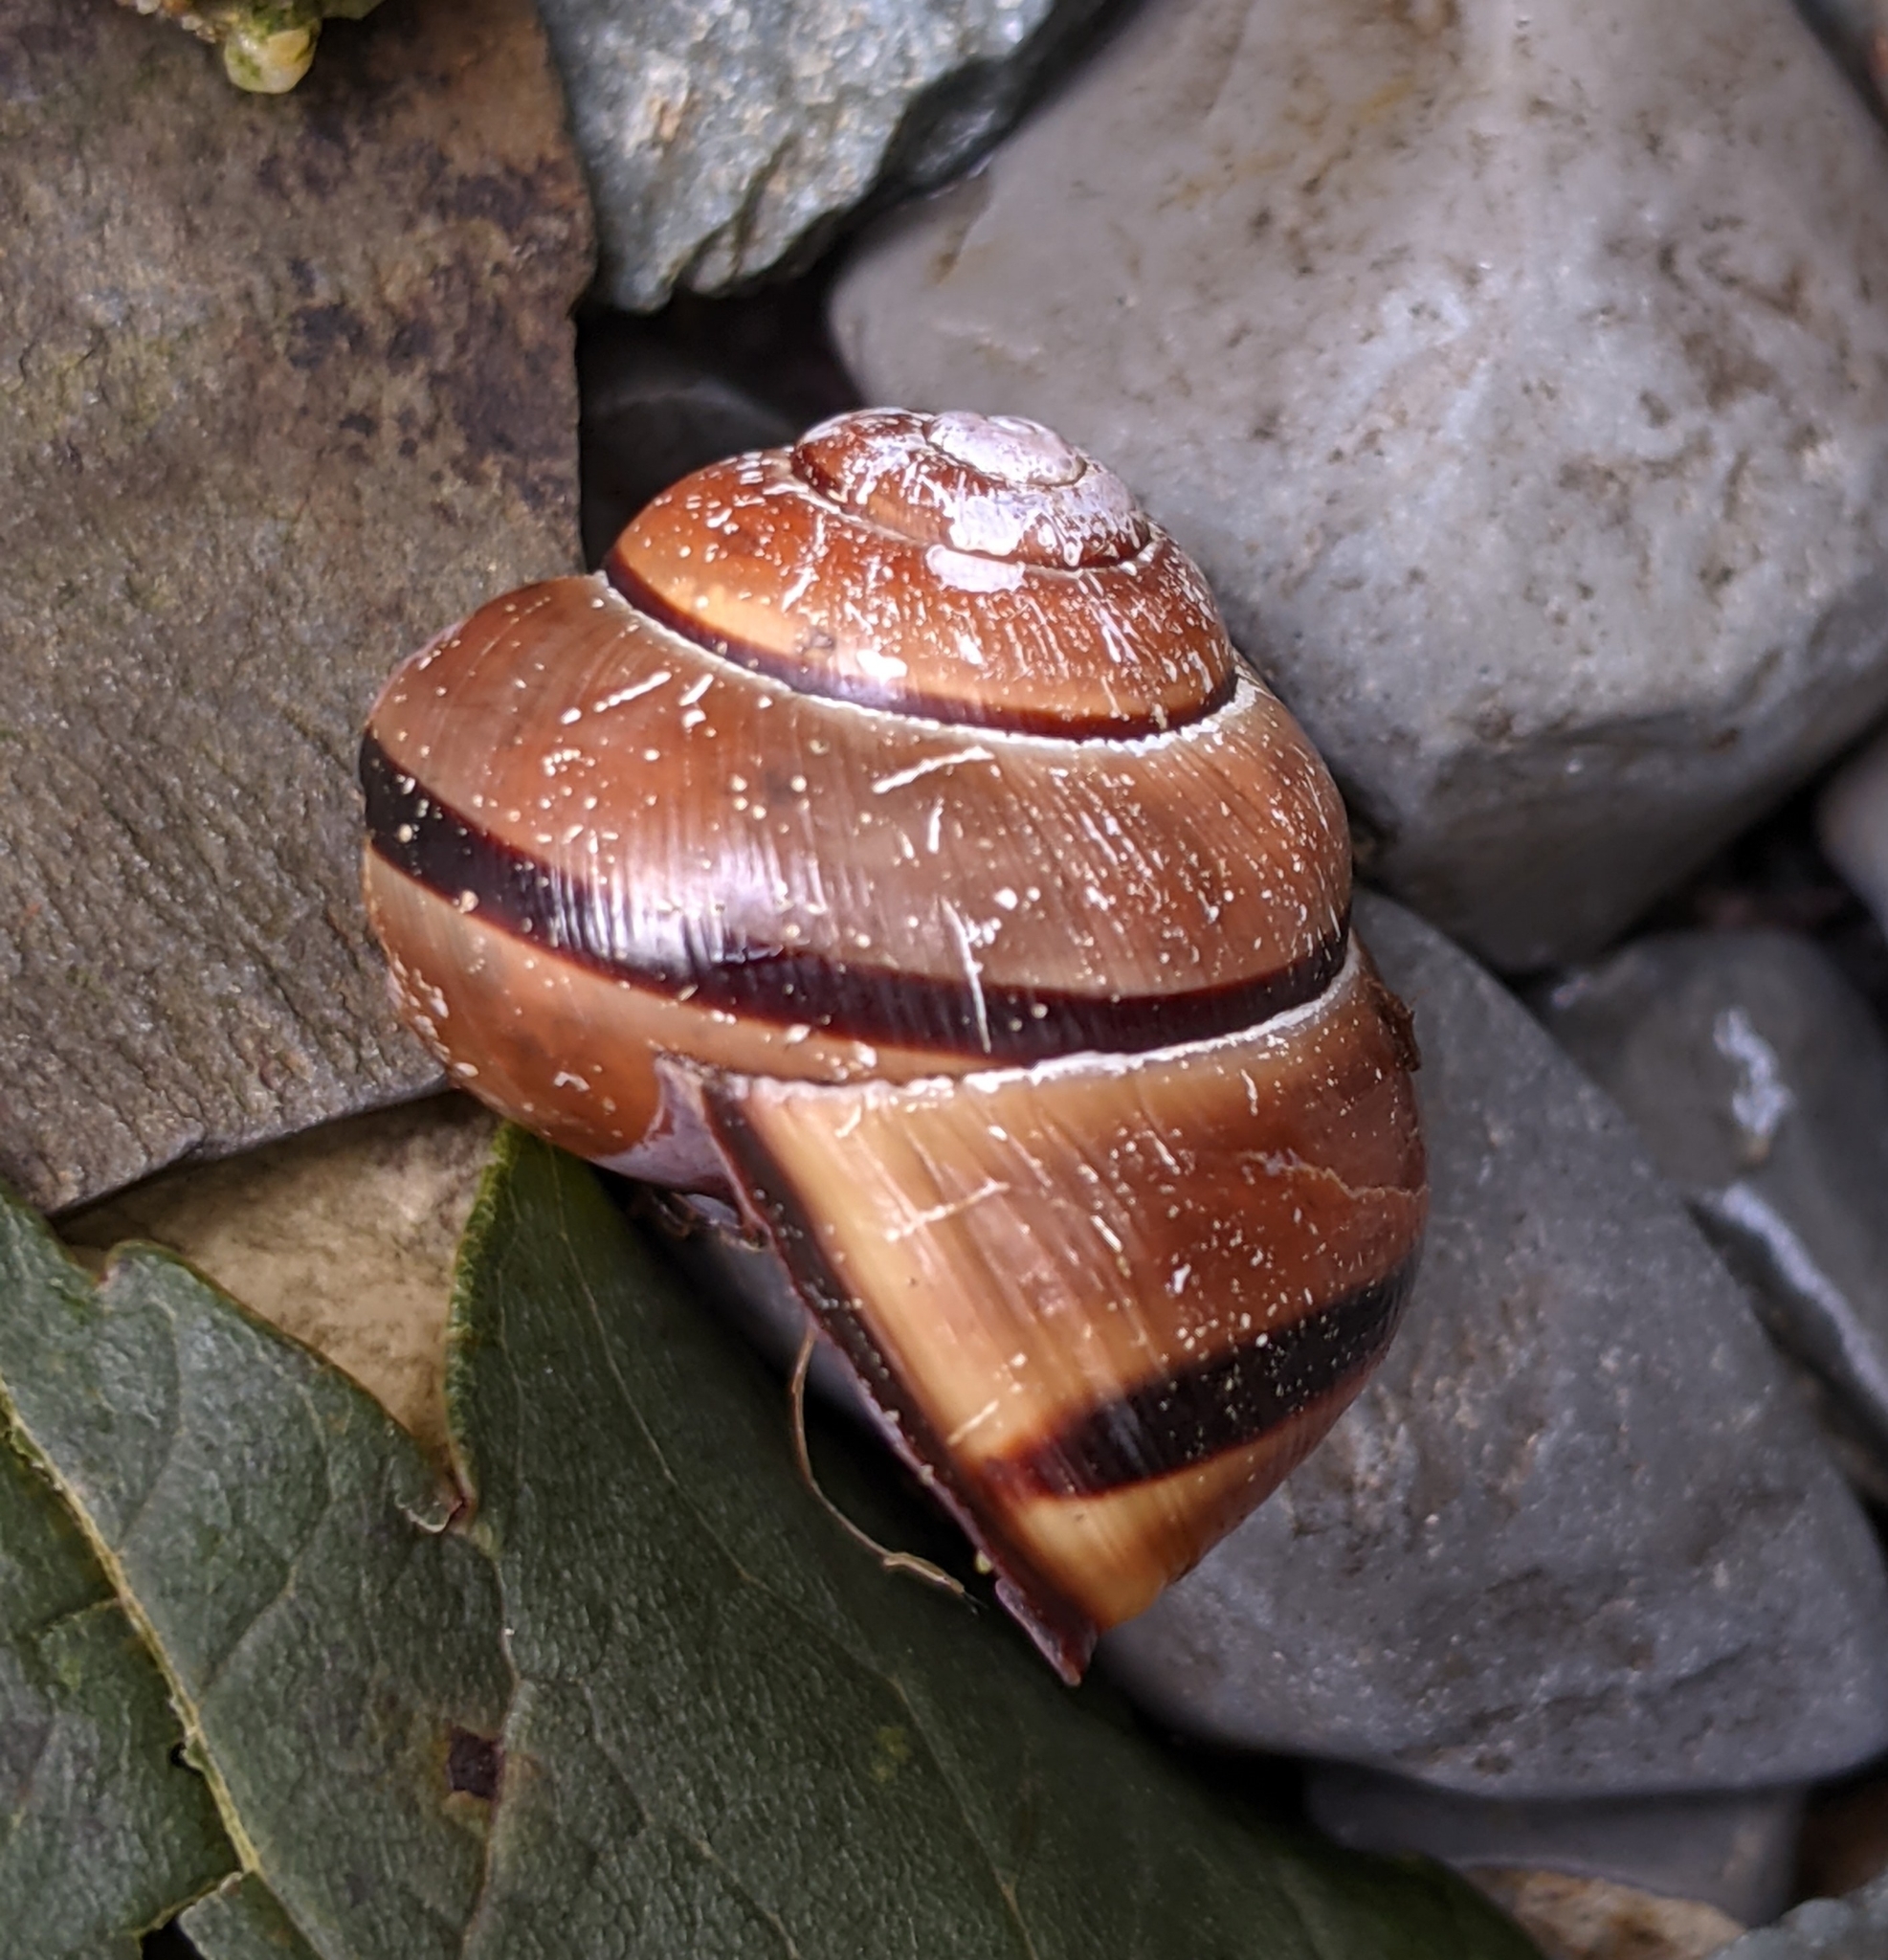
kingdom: Animalia
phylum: Mollusca
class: Gastropoda
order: Stylommatophora
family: Helicidae
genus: Cepaea
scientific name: Cepaea nemoralis
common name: Grovesnail
